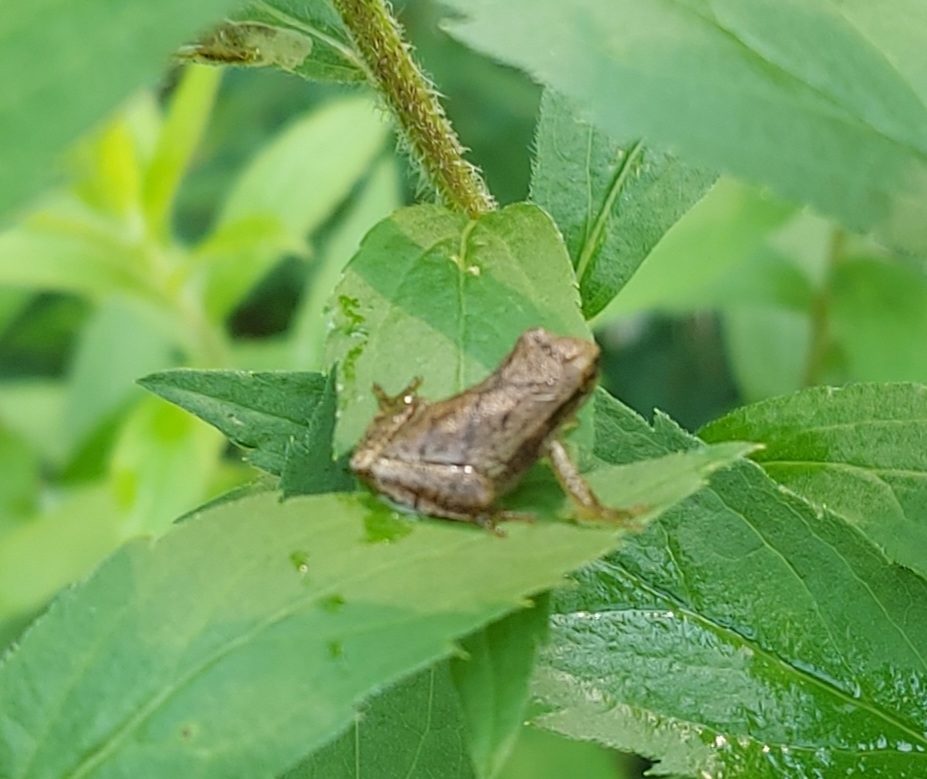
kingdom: Animalia
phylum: Chordata
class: Amphibia
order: Anura
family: Hylidae
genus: Pseudacris
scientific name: Pseudacris crucifer
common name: Spring peeper
